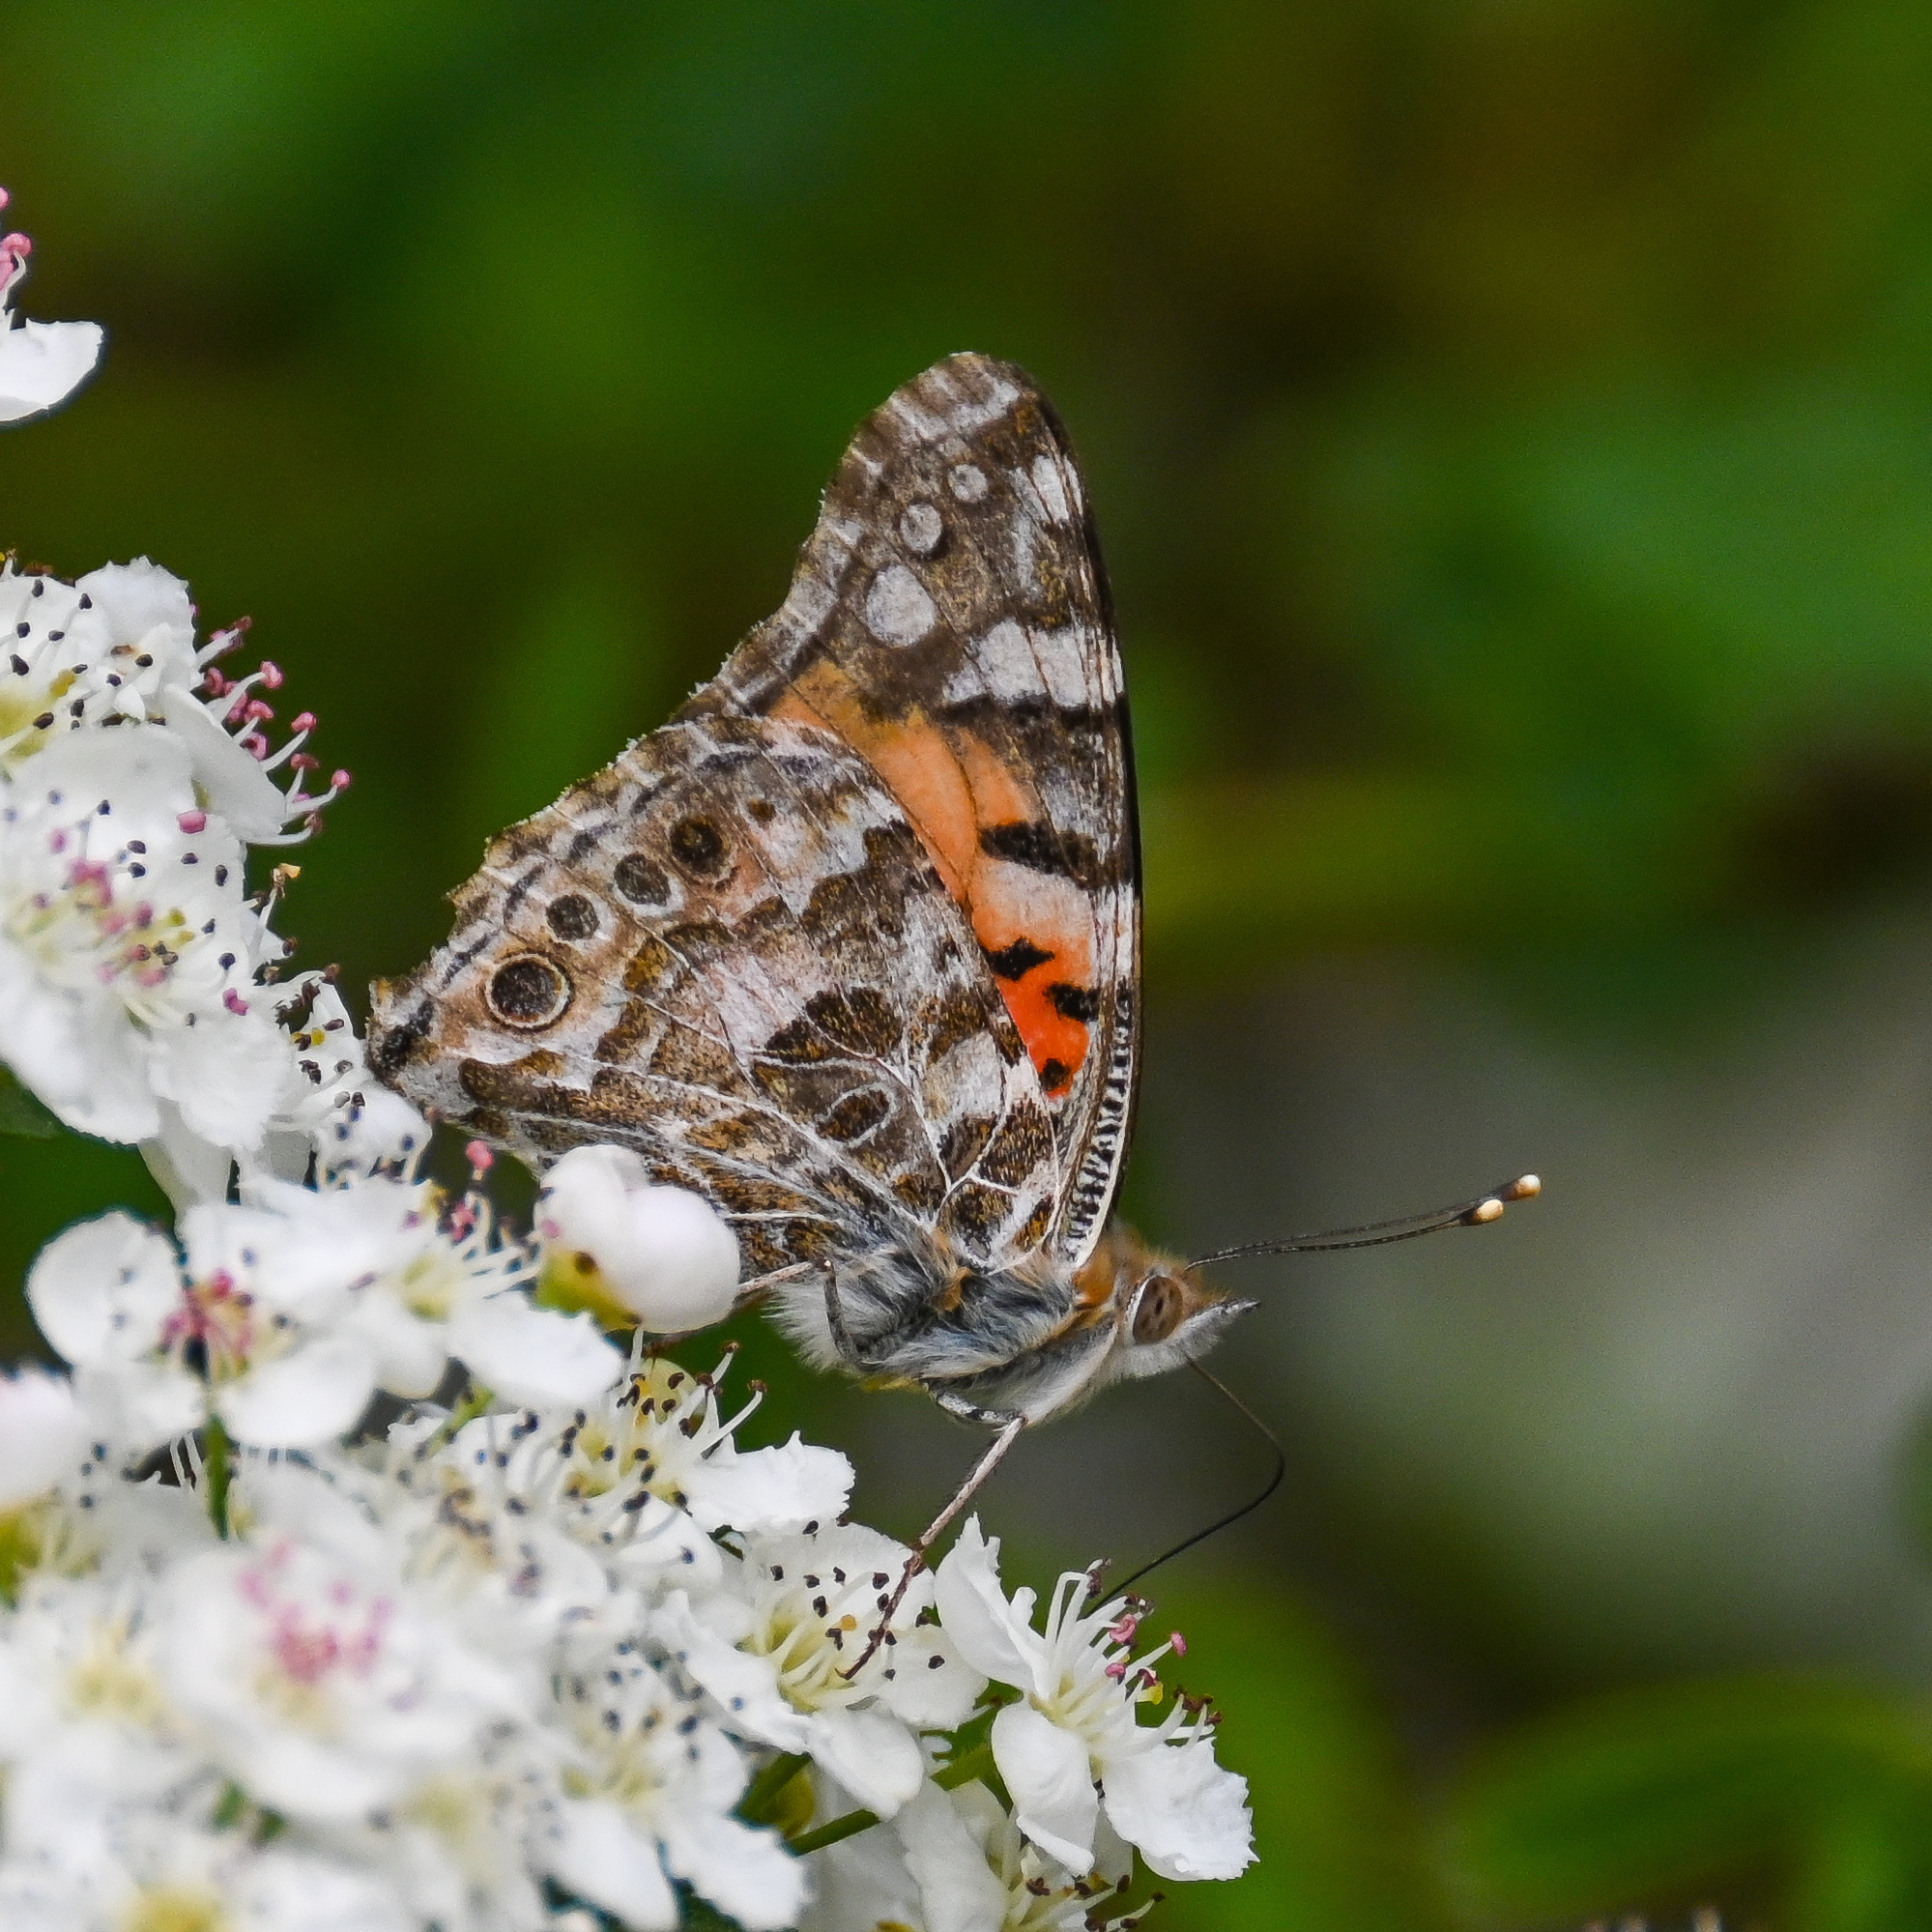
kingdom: Animalia
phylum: Arthropoda
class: Insecta
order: Lepidoptera
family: Nymphalidae
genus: Vanessa
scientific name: Vanessa cardui
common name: Painted lady
